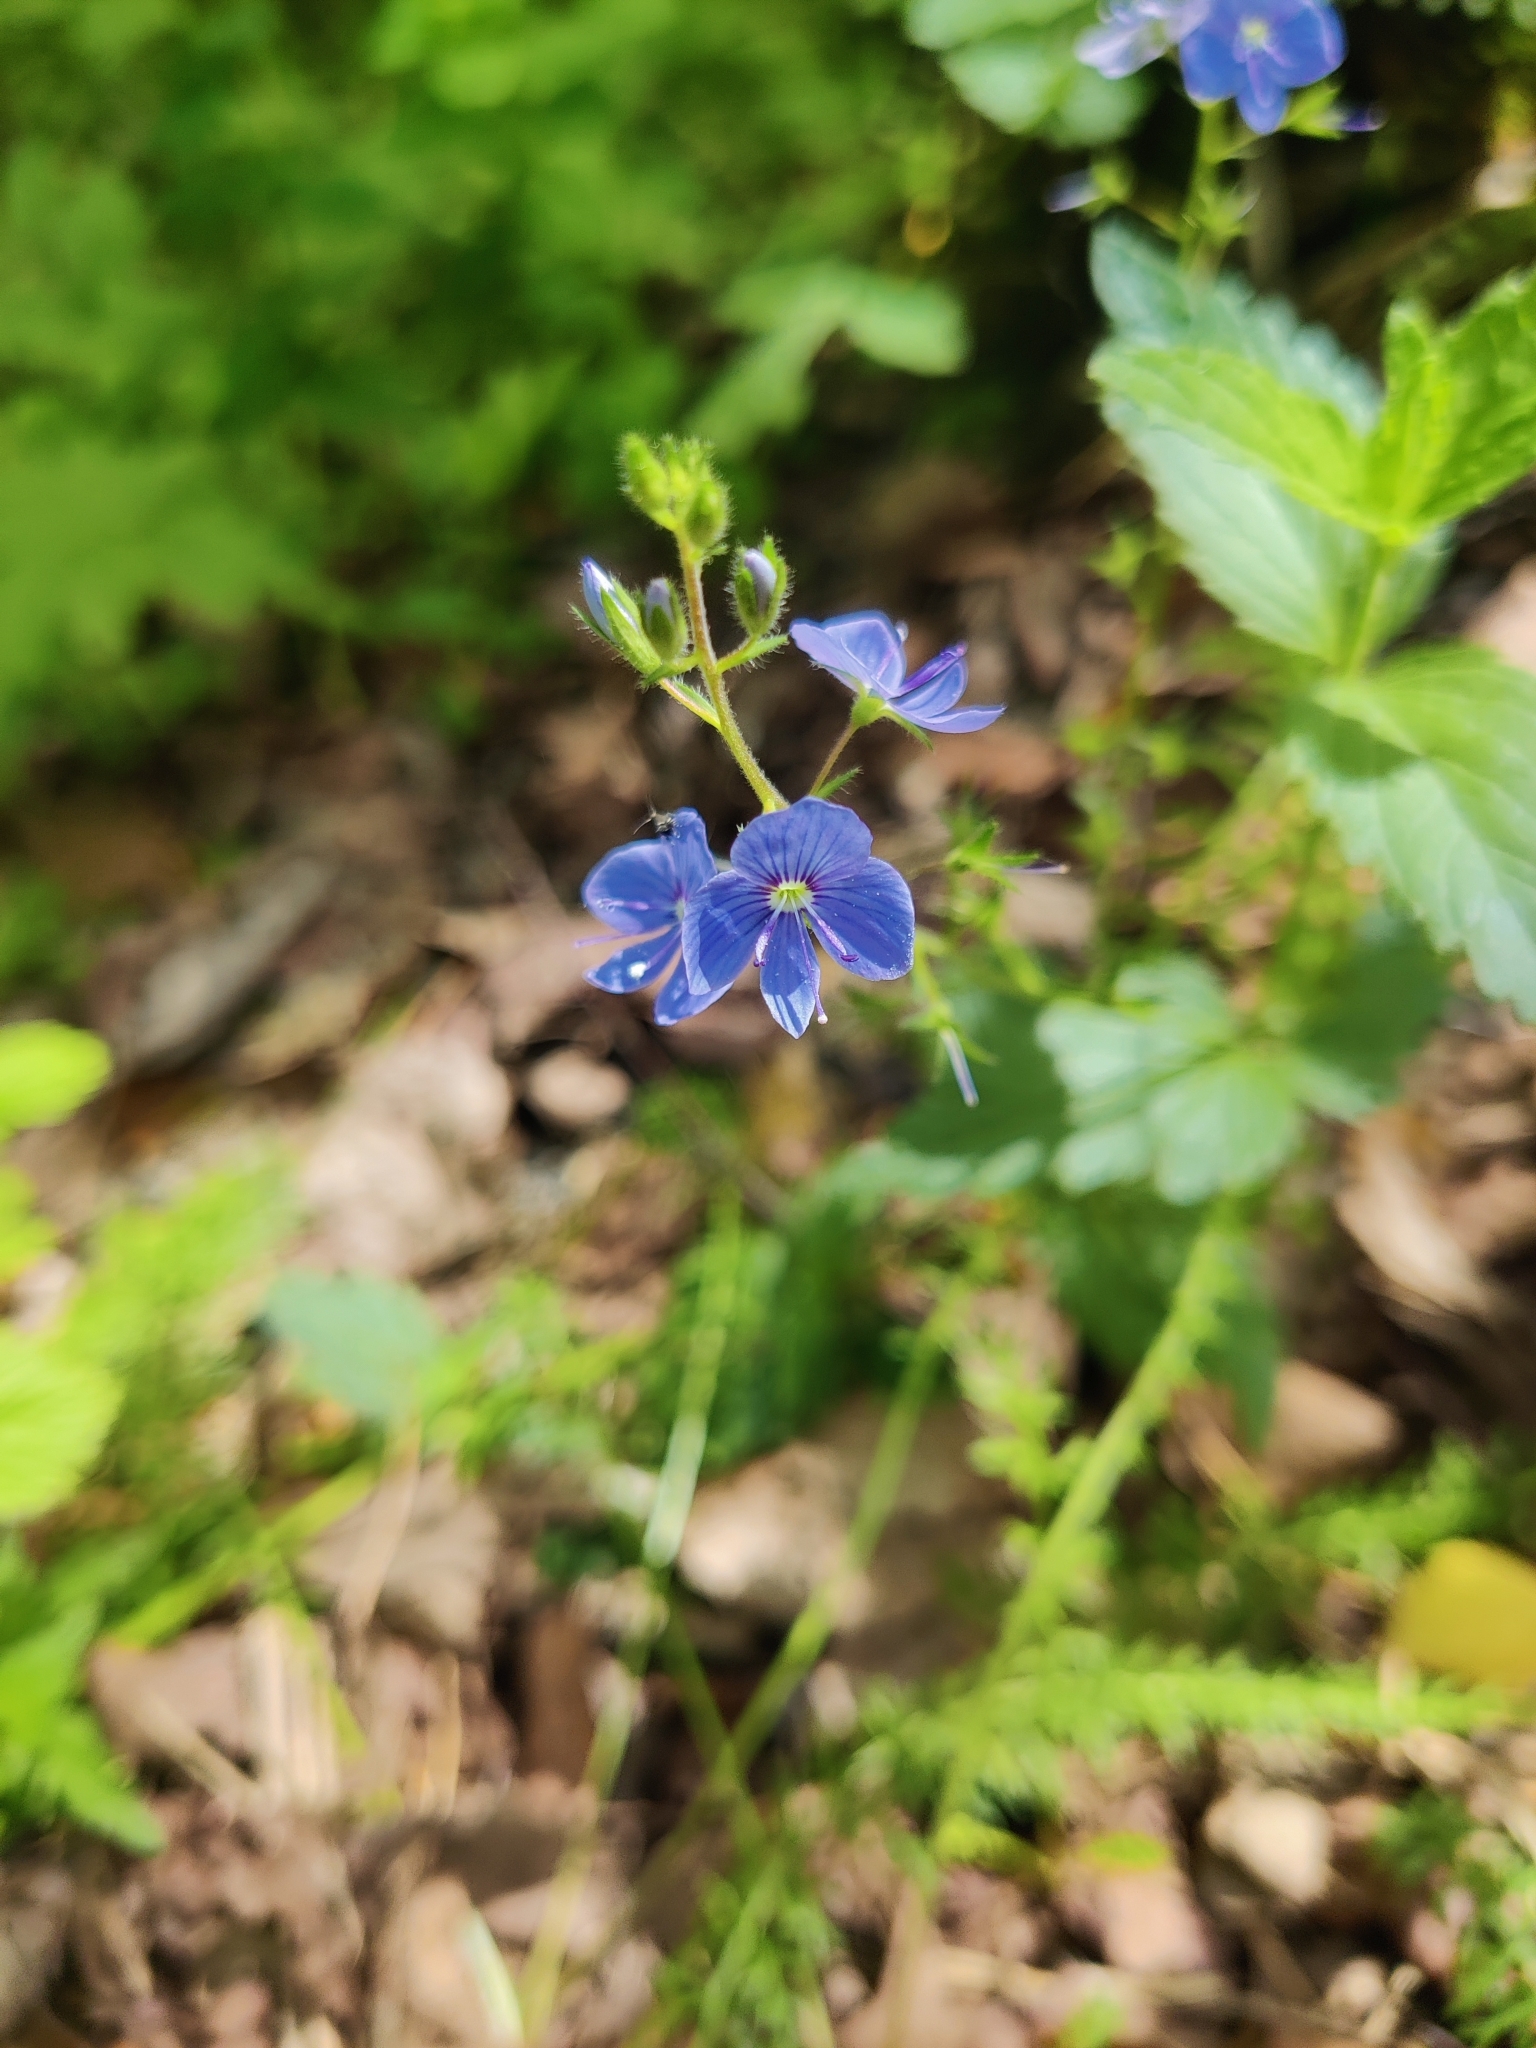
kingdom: Plantae
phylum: Tracheophyta
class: Magnoliopsida
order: Lamiales
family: Plantaginaceae
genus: Veronica
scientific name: Veronica chamaedrys
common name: Germander speedwell
